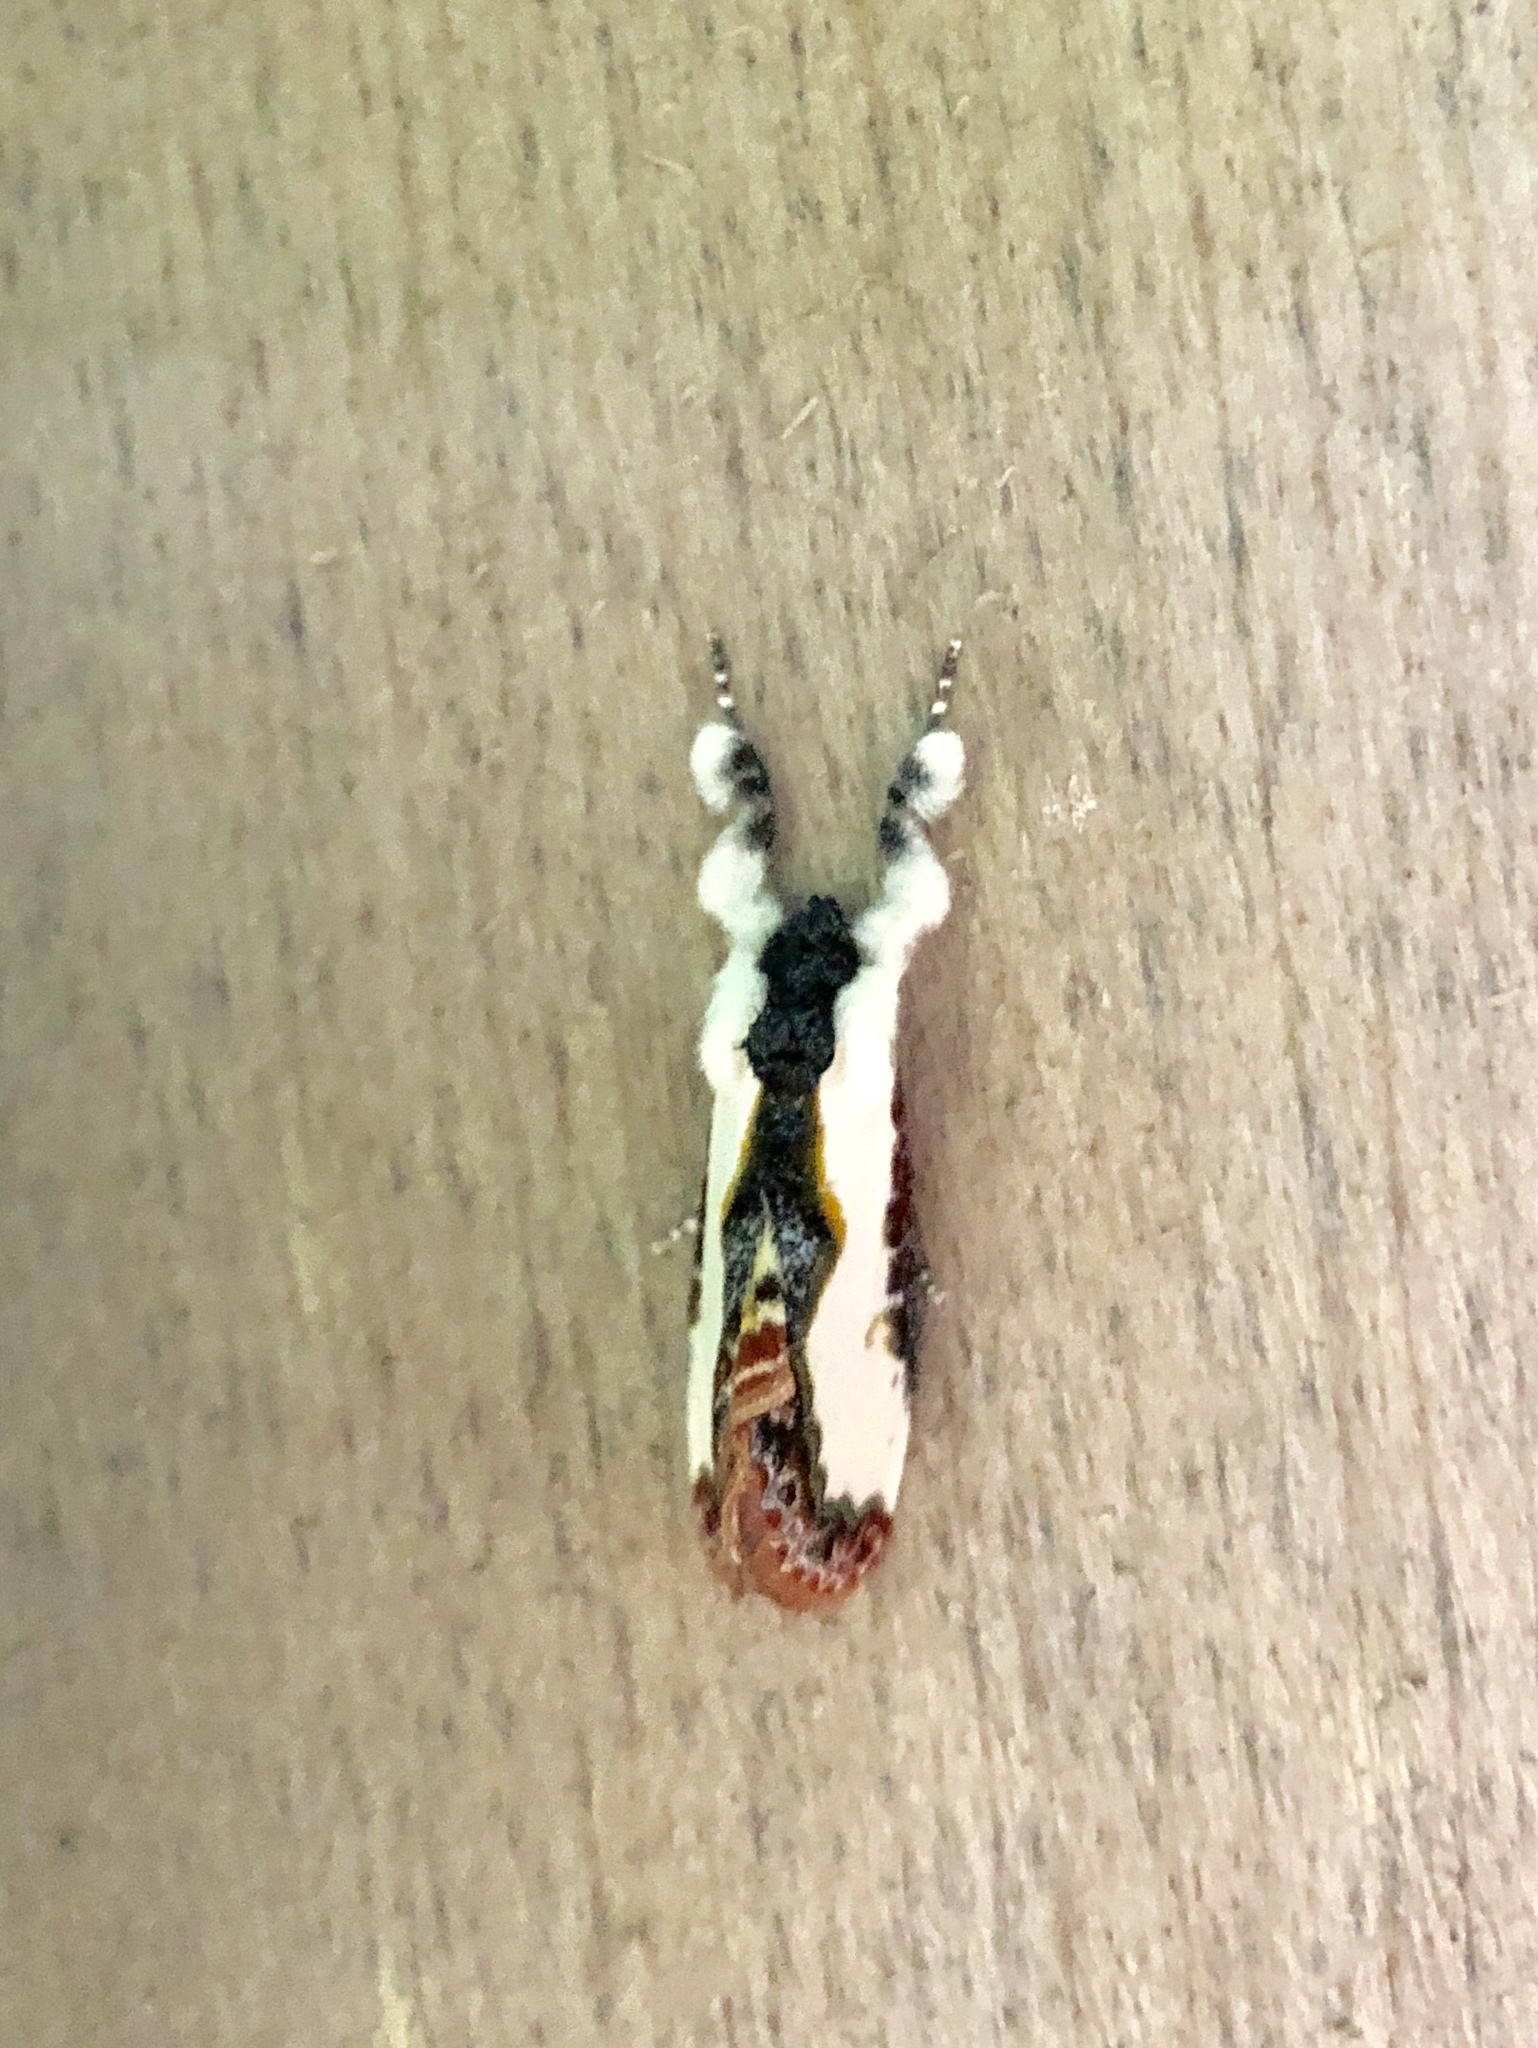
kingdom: Animalia
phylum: Arthropoda
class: Insecta
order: Lepidoptera
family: Noctuidae
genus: Eudryas
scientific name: Eudryas unio
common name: Pearly wood-nymph
